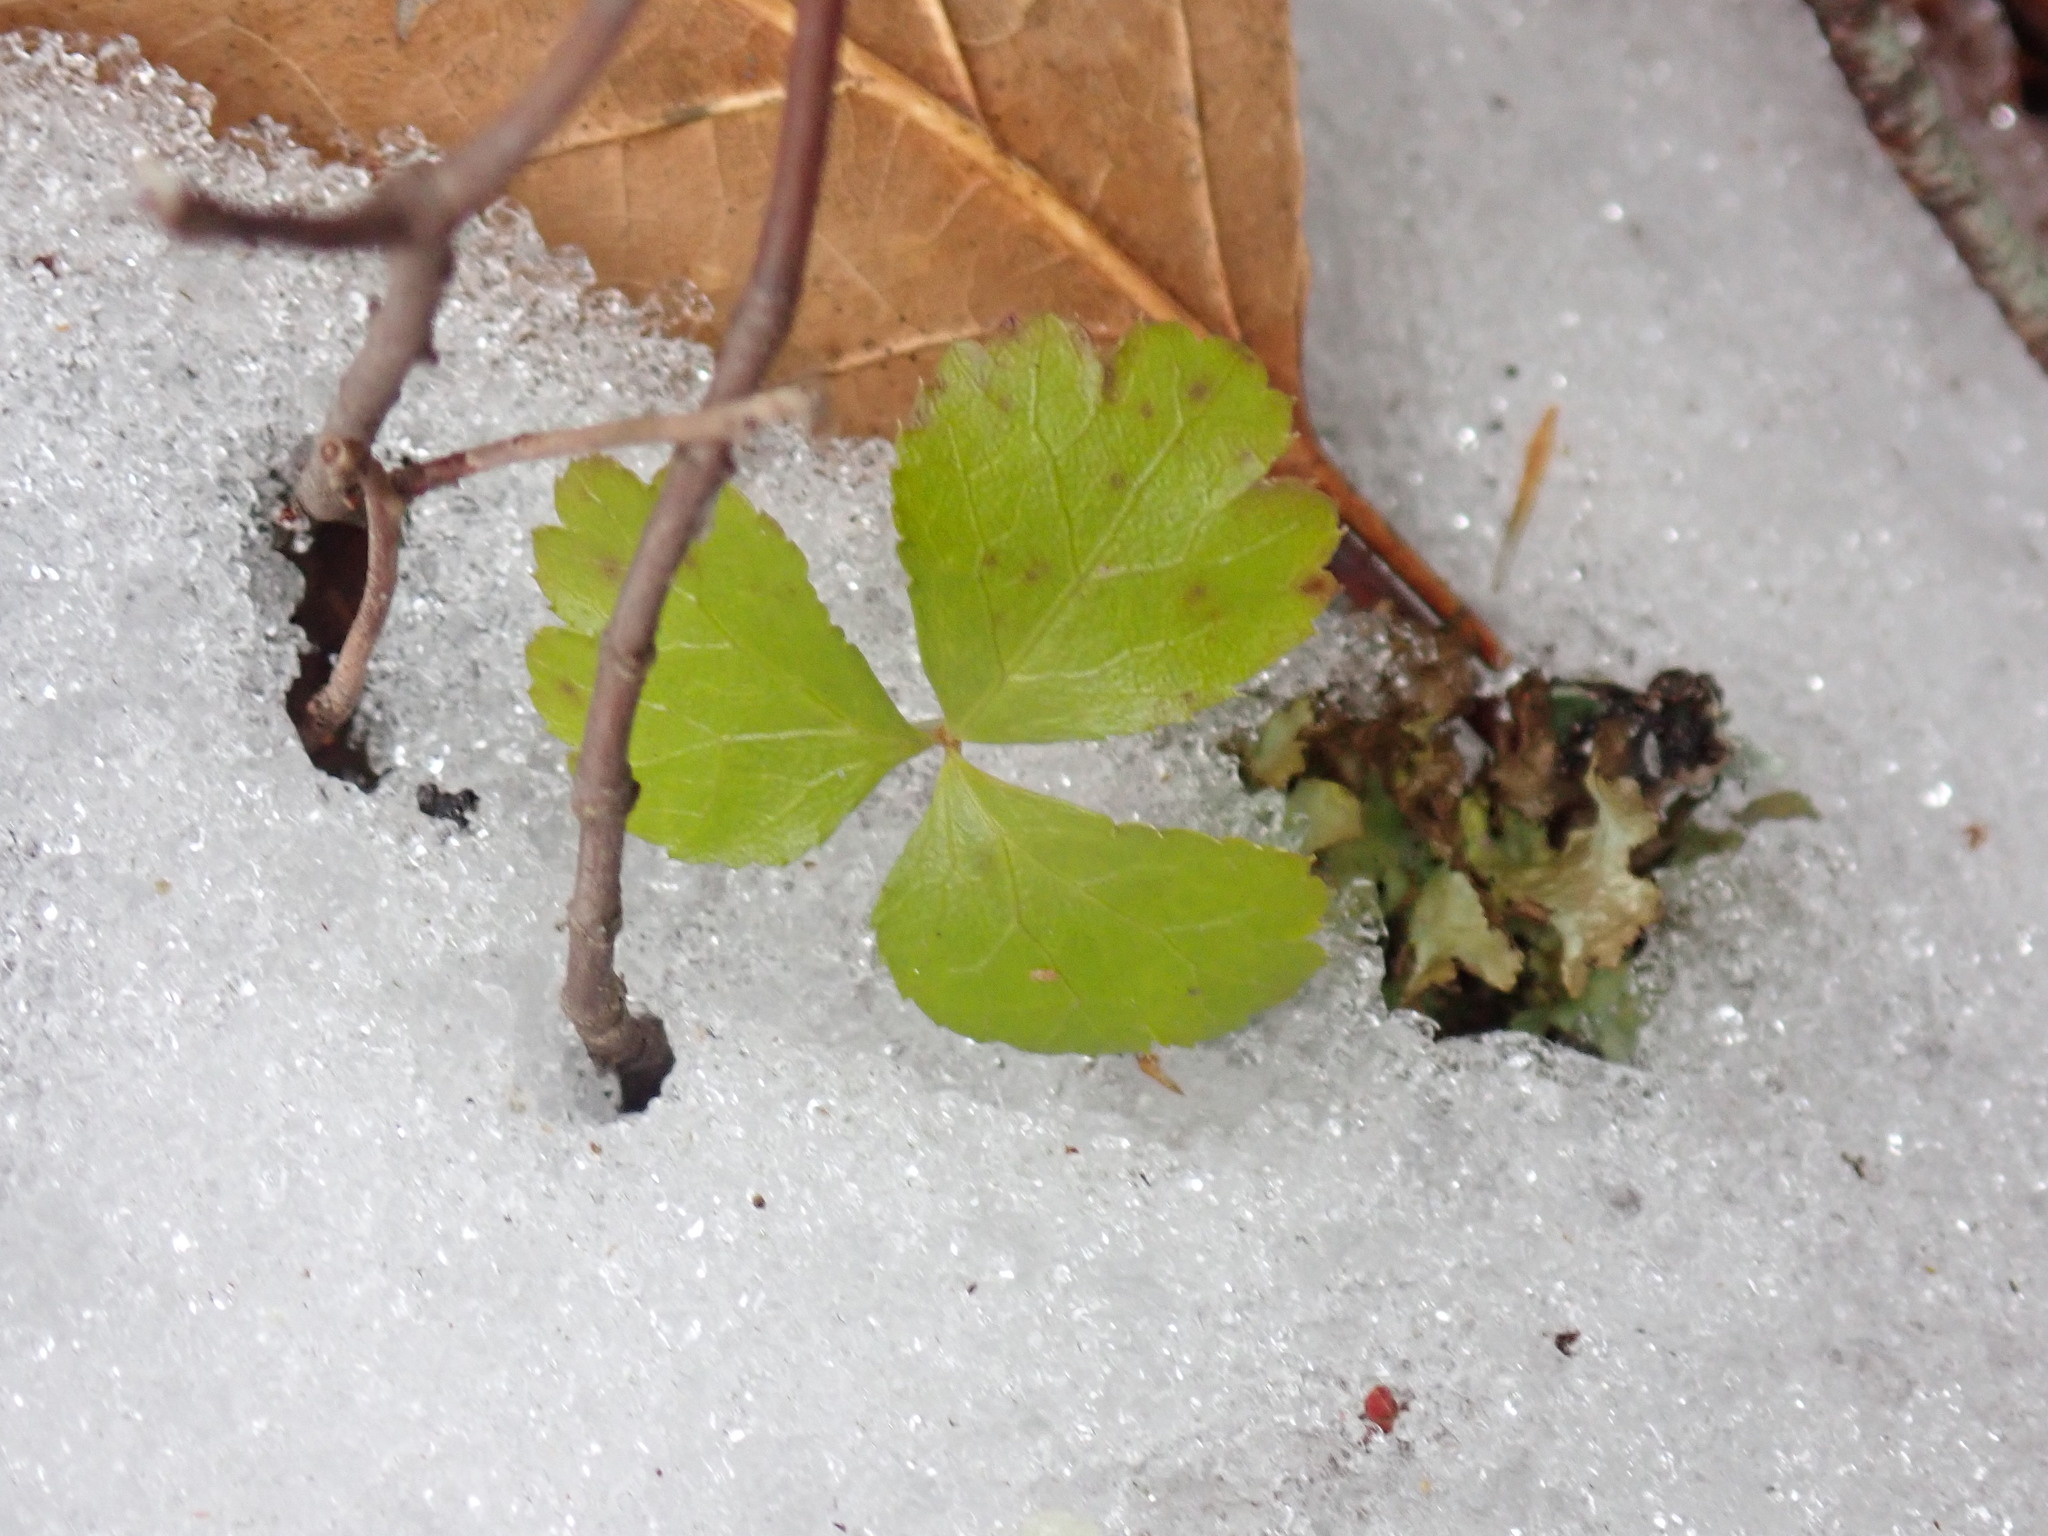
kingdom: Plantae
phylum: Tracheophyta
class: Magnoliopsida
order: Ranunculales
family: Ranunculaceae
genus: Coptis
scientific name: Coptis trifolia
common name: Canker-root
